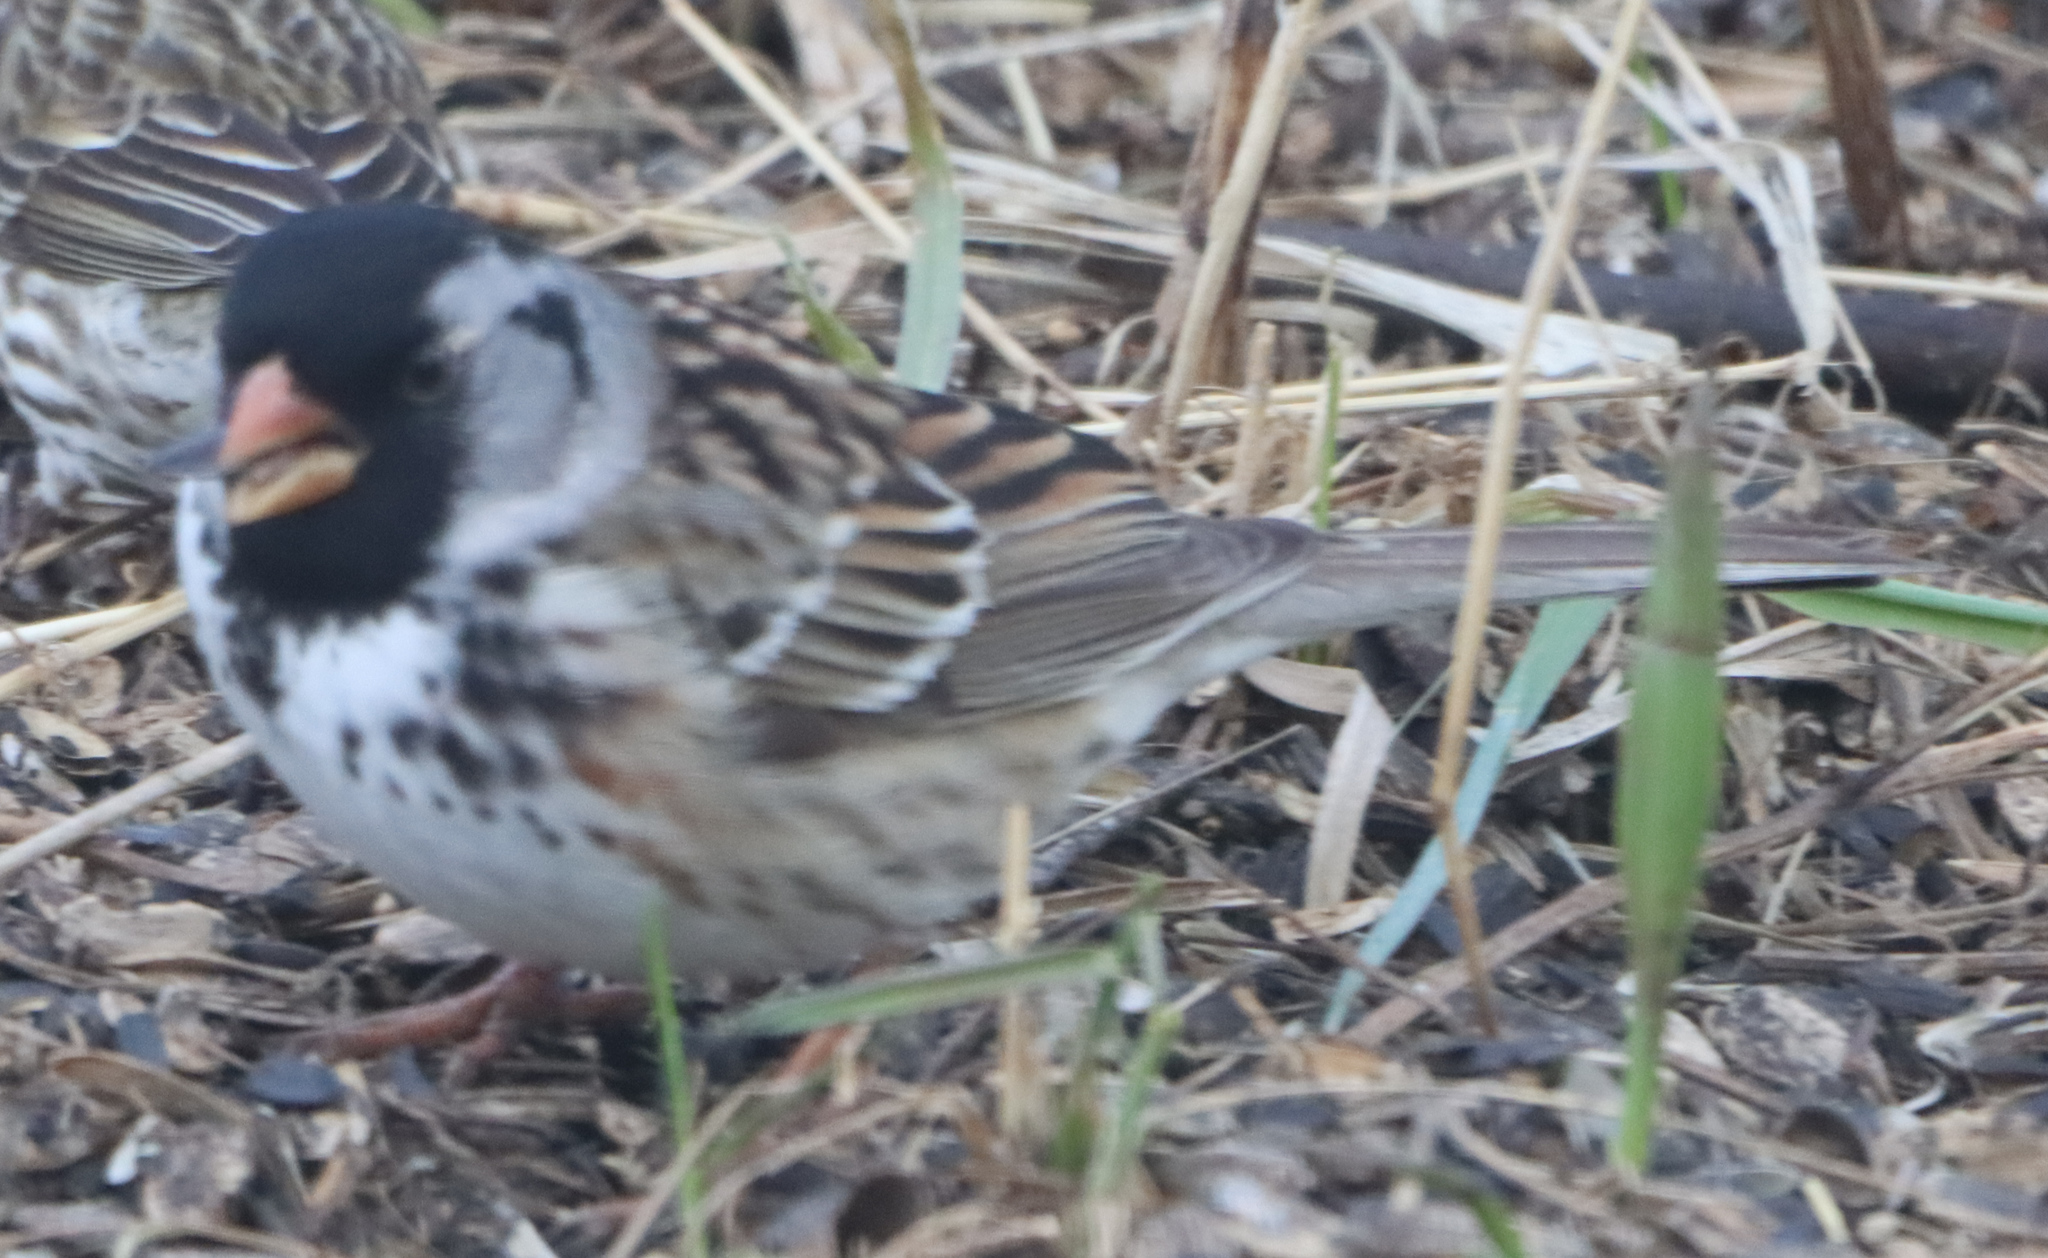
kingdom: Animalia
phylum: Chordata
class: Aves
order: Passeriformes
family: Passerellidae
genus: Zonotrichia
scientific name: Zonotrichia querula
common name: Harris's sparrow
